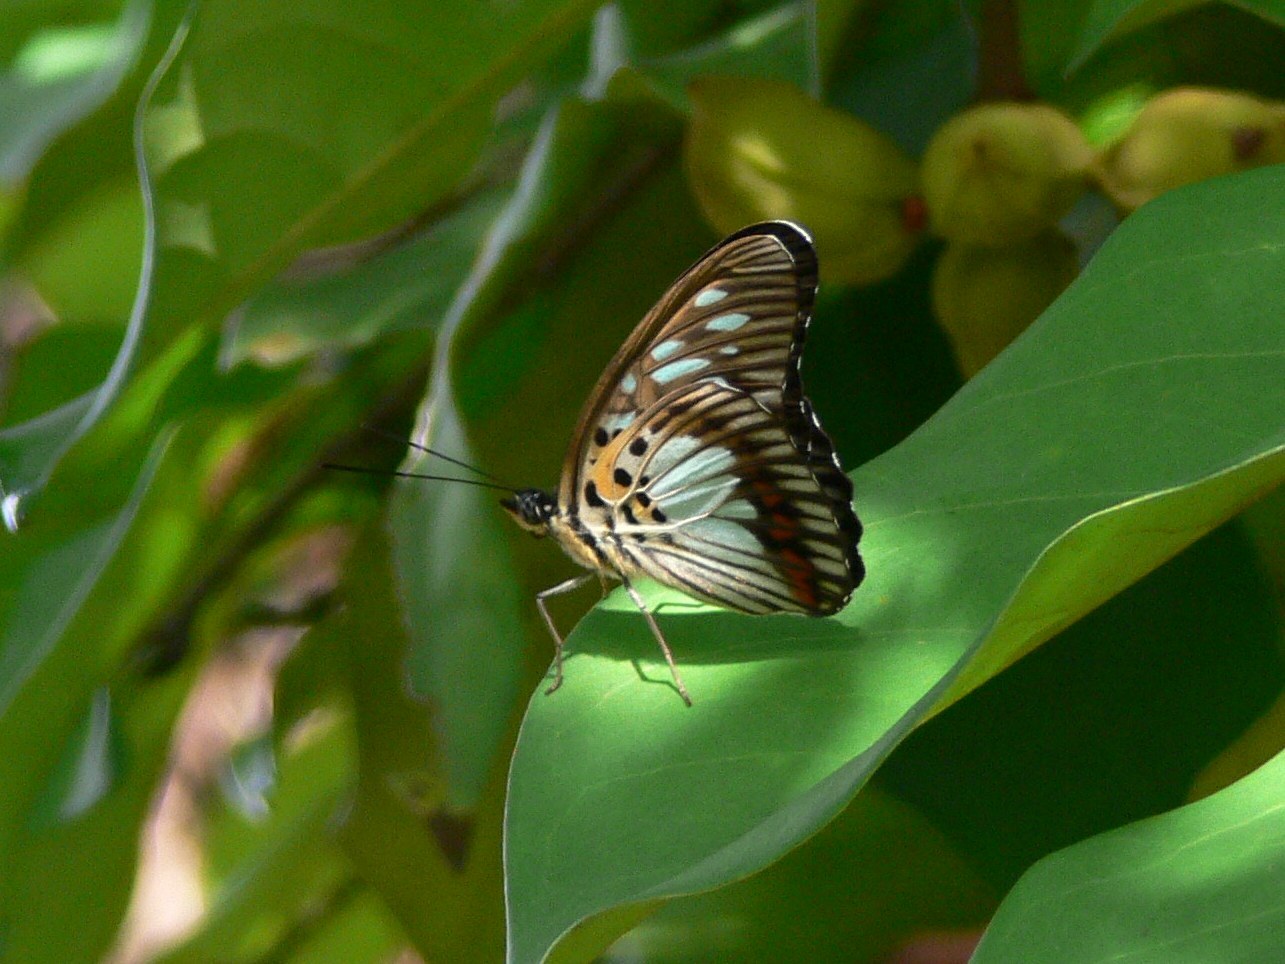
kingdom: Animalia
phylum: Arthropoda
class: Insecta
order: Lepidoptera
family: Nymphalidae
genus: Chloropoea
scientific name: Chloropoea semire
